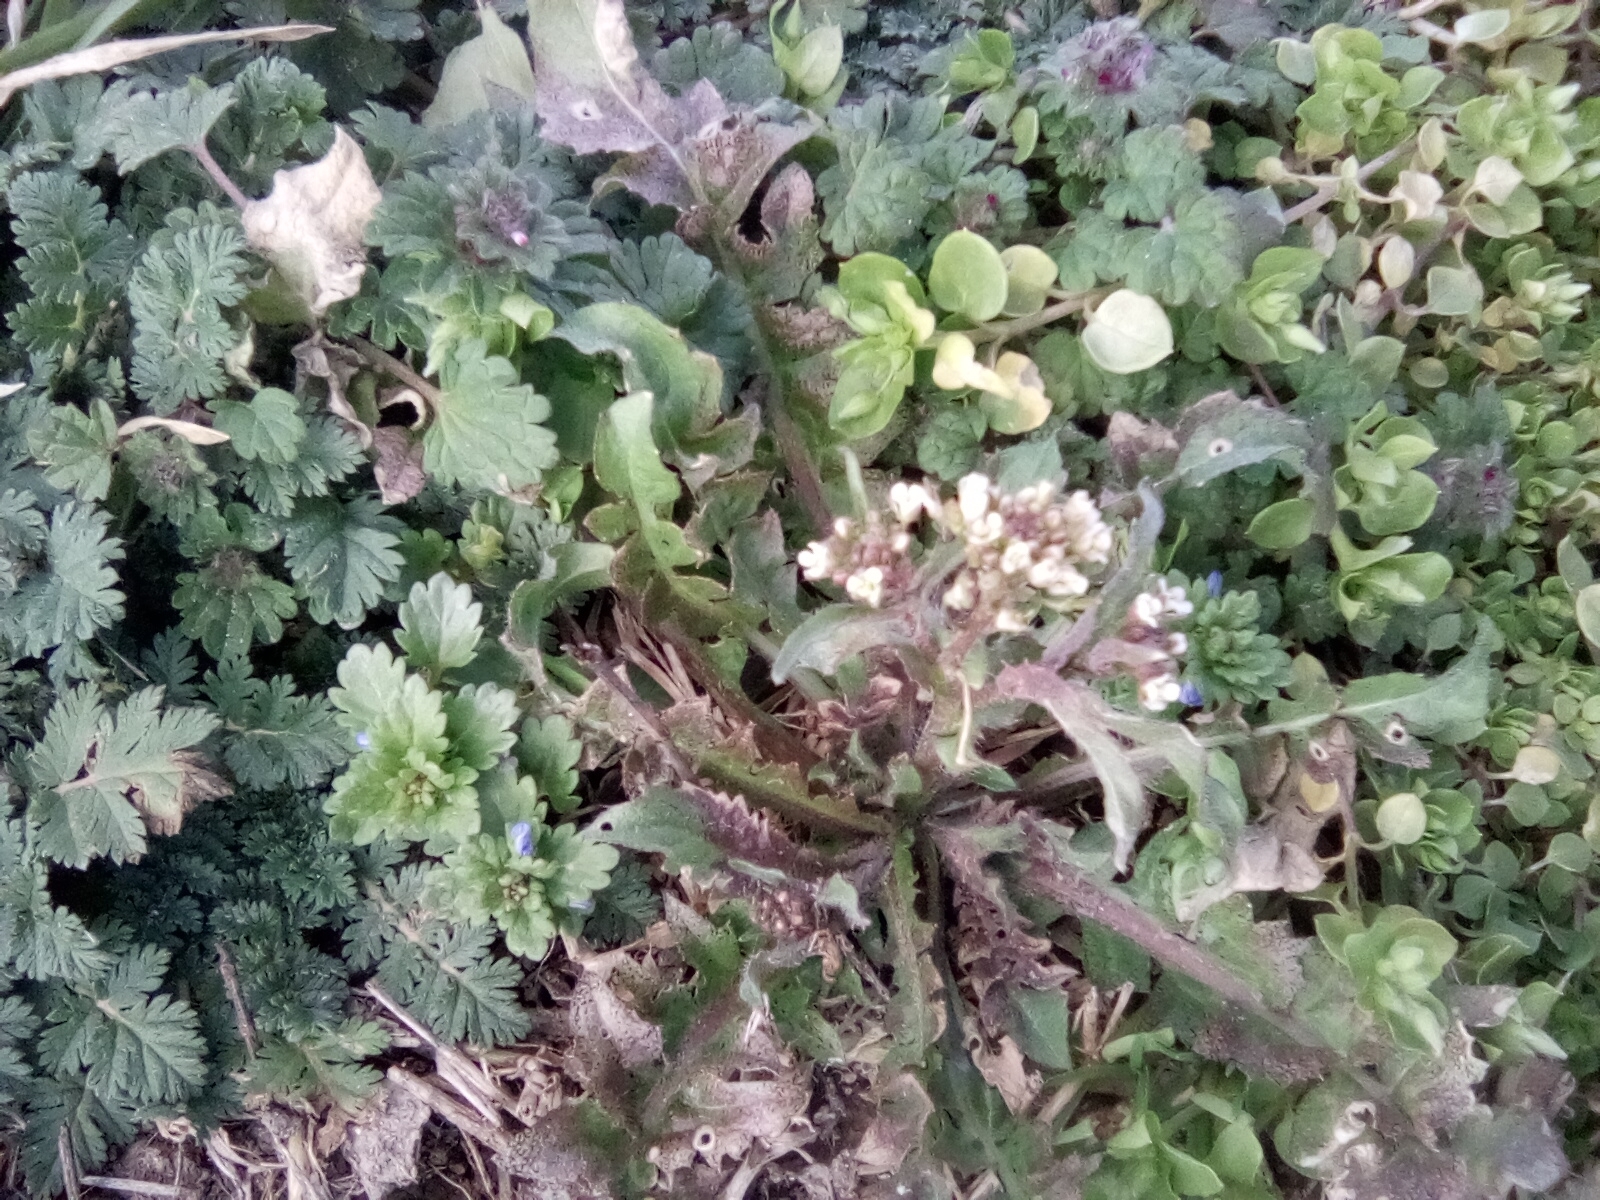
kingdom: Plantae
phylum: Tracheophyta
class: Magnoliopsida
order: Brassicales
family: Brassicaceae
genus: Capsella
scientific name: Capsella bursa-pastoris
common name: Shepherd's purse
